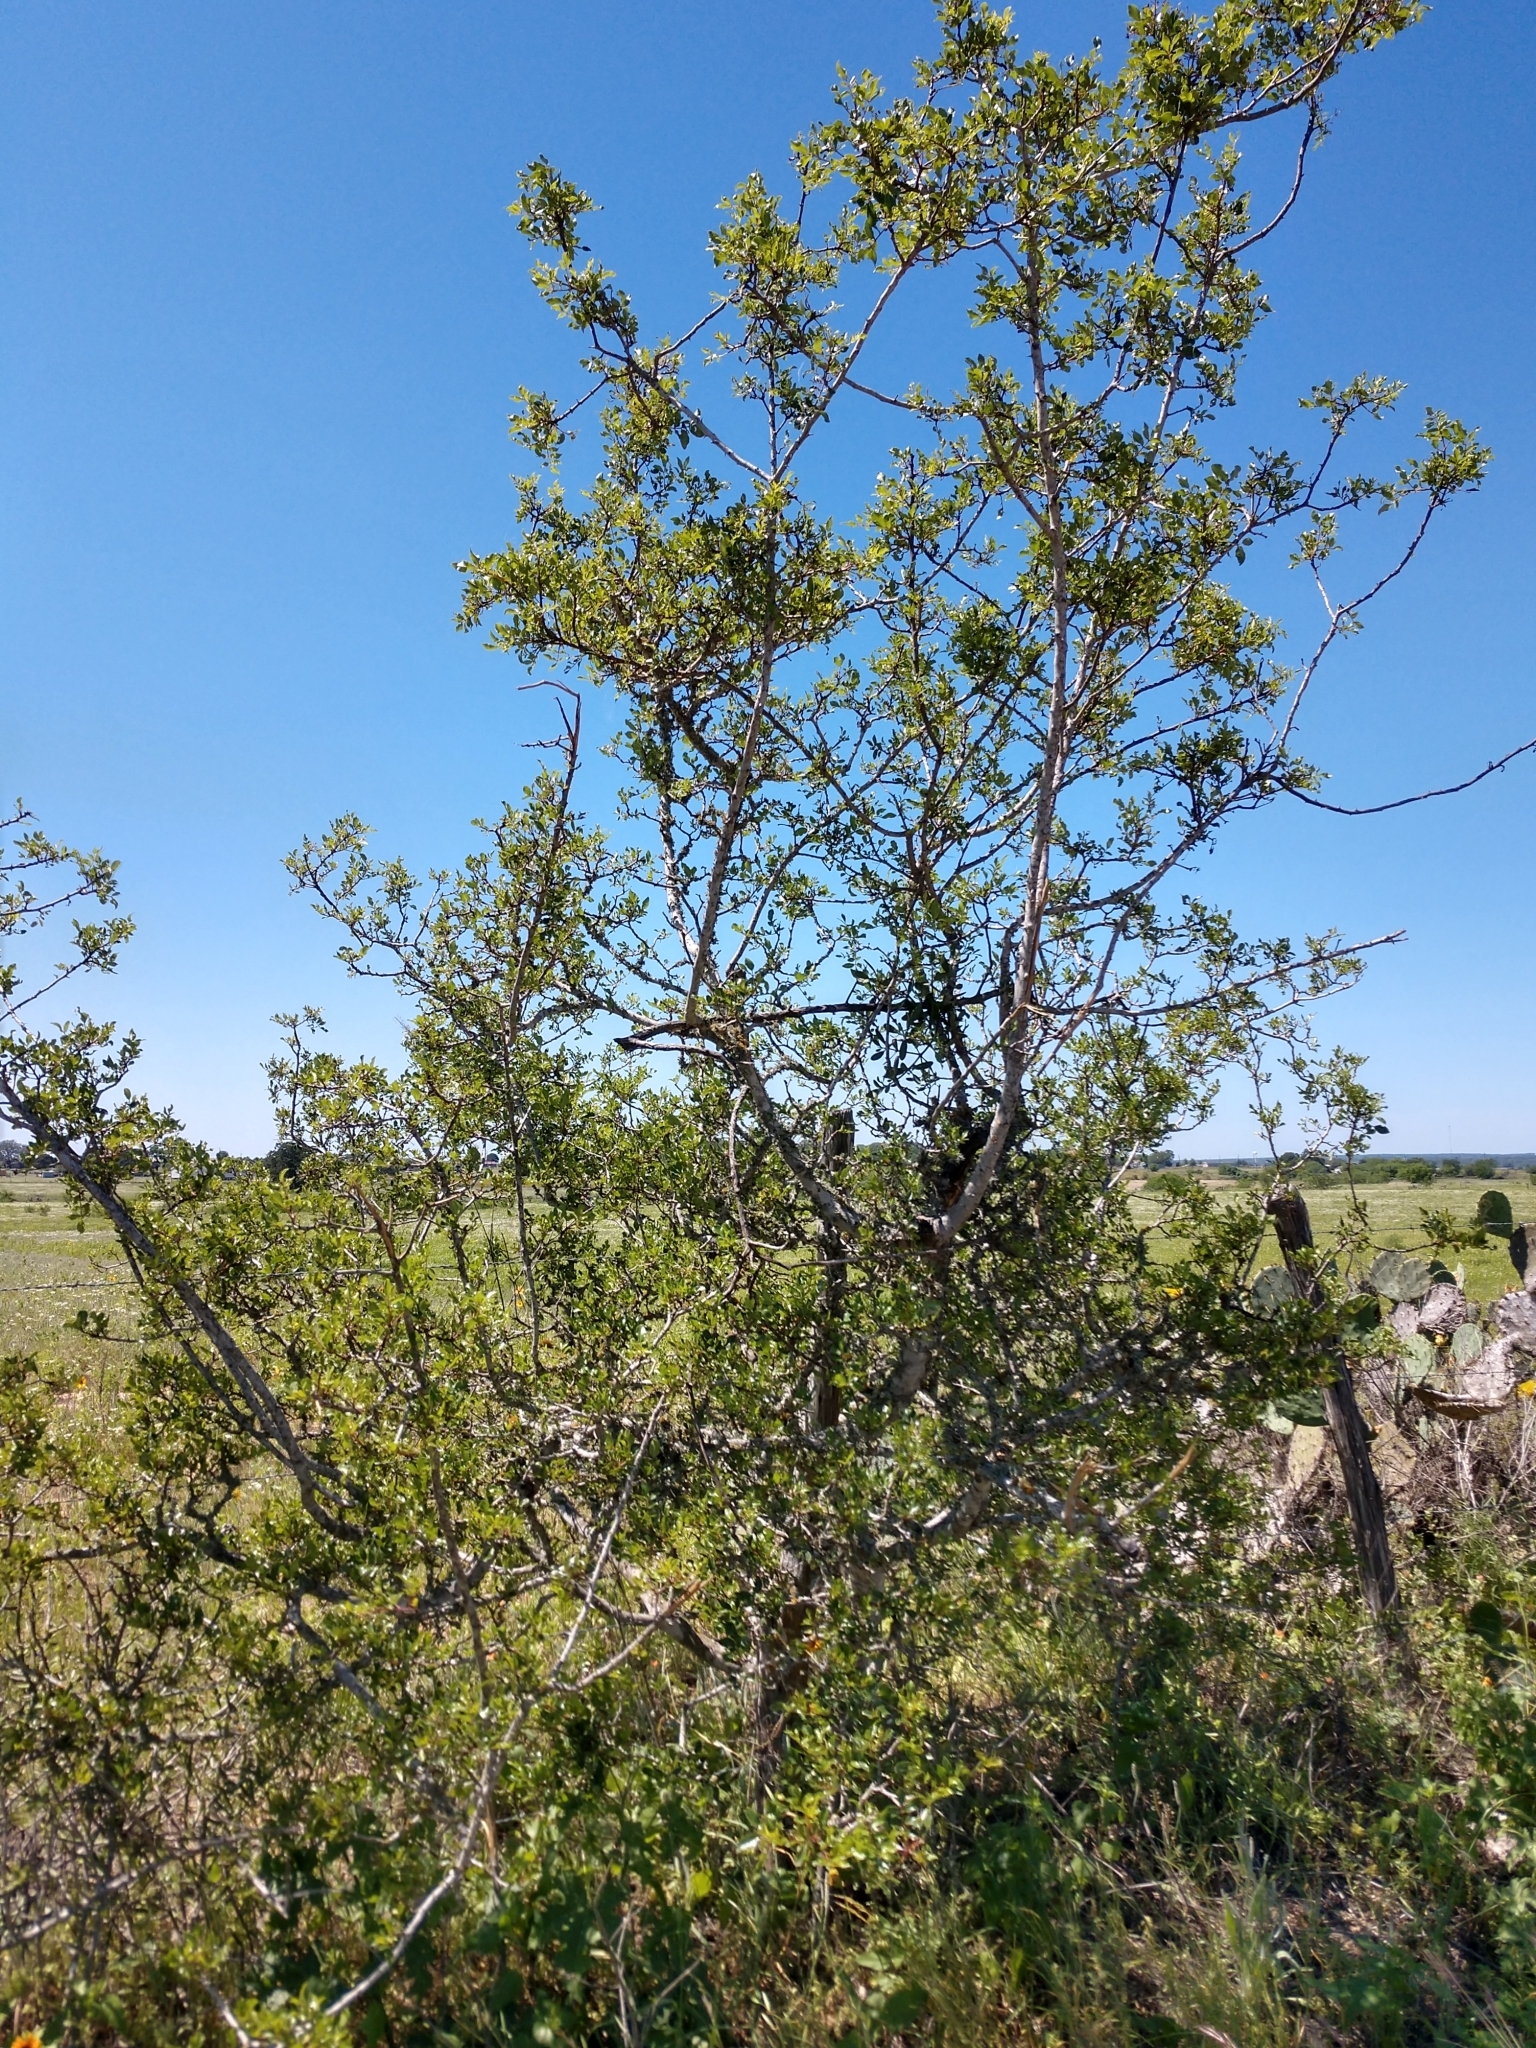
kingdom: Plantae
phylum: Tracheophyta
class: Magnoliopsida
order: Sapindales
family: Rutaceae
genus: Zanthoxylum
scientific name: Zanthoxylum clava-herculis
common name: Hercules'-club
